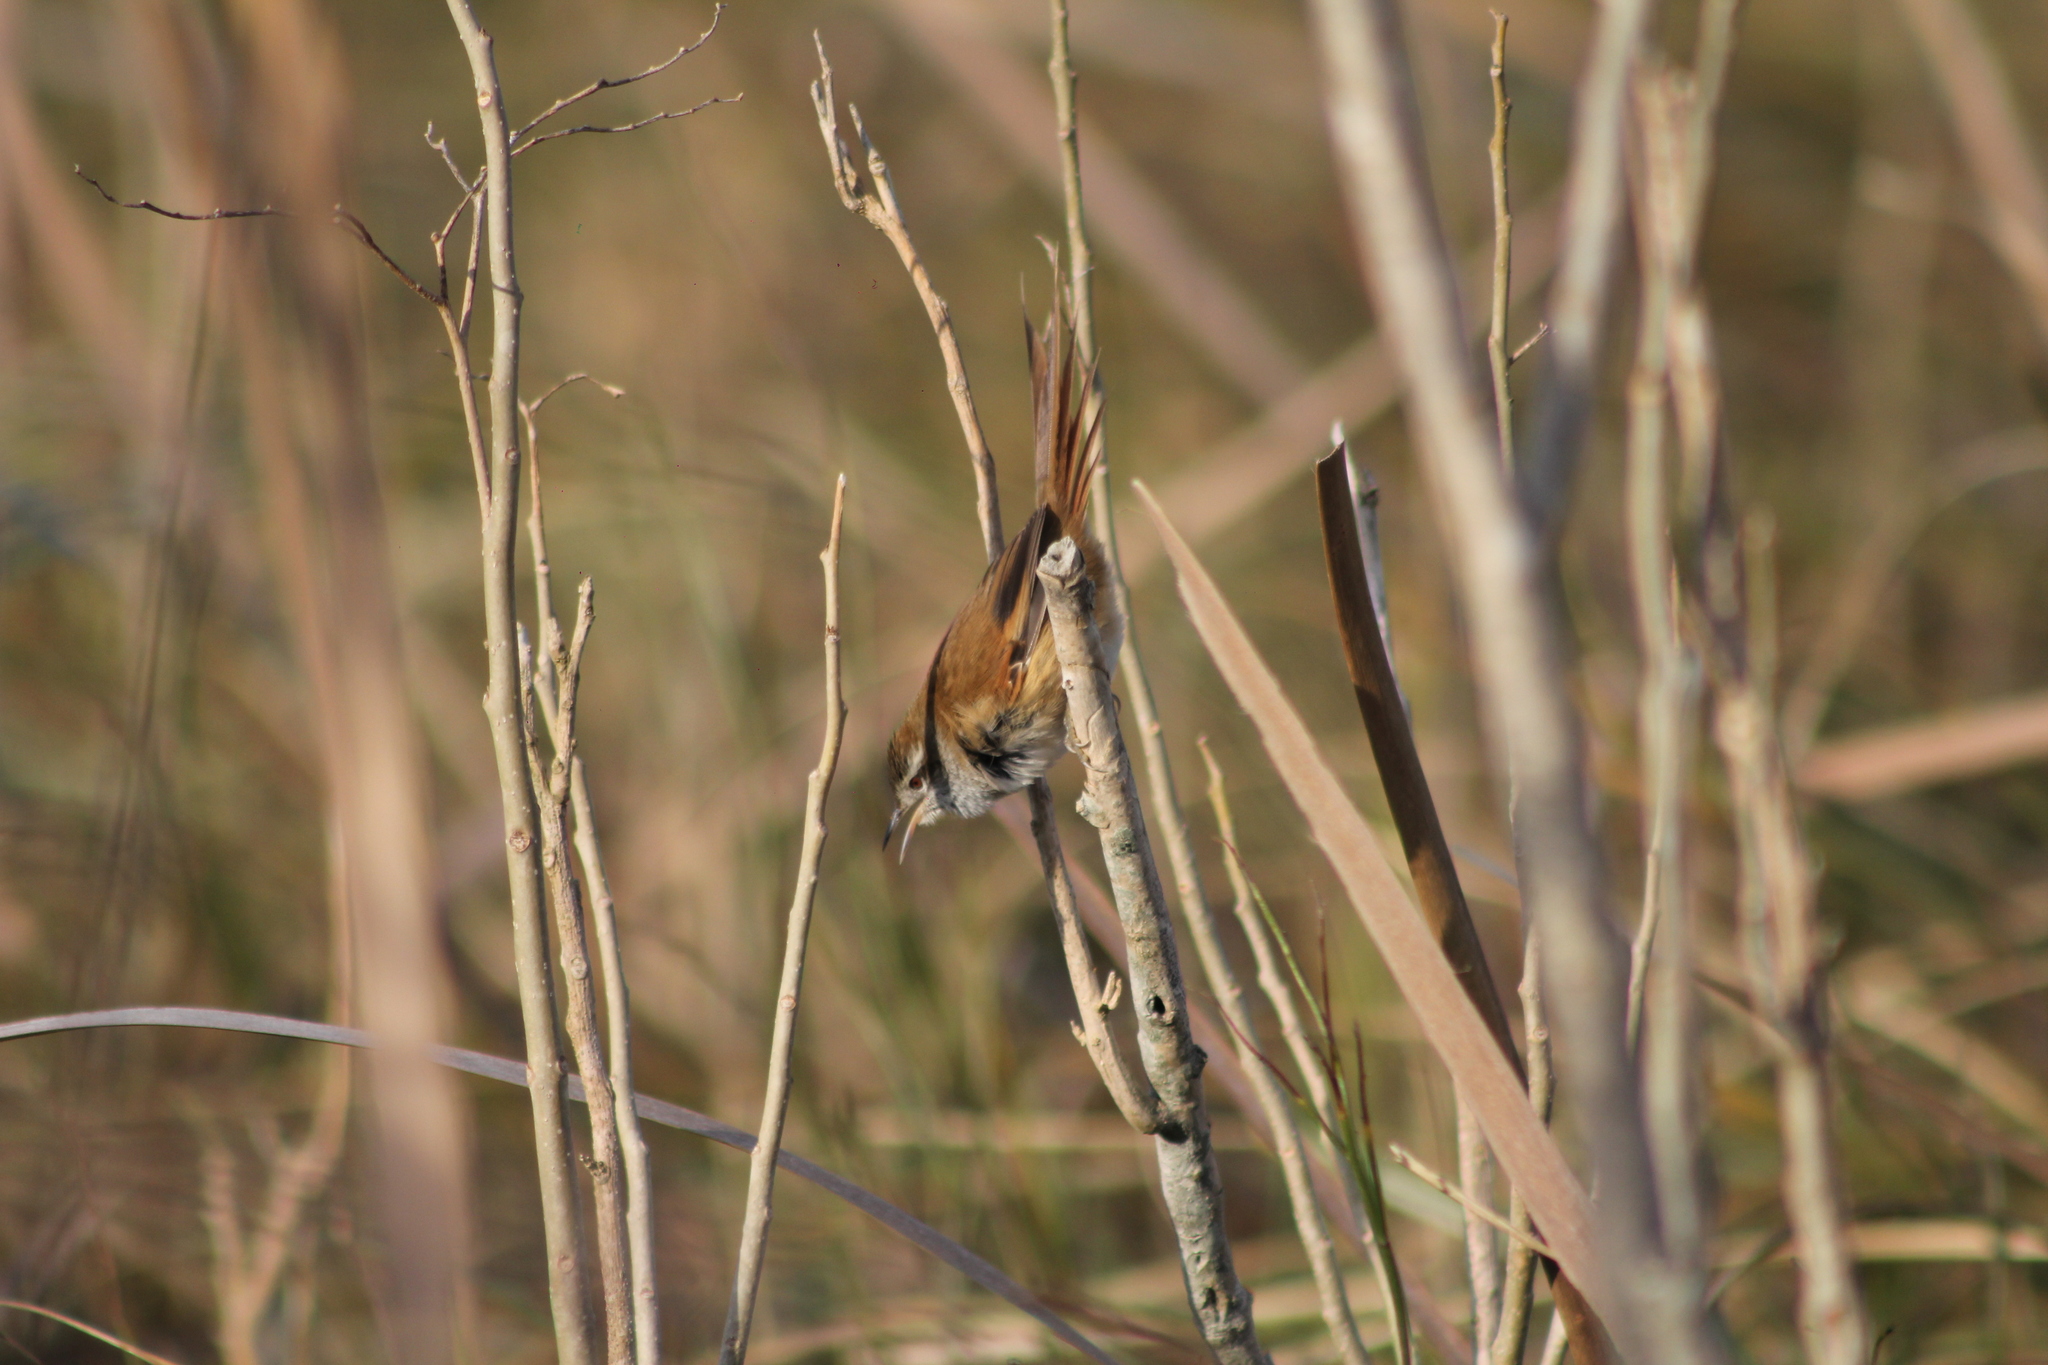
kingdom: Animalia
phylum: Chordata
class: Aves
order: Passeriformes
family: Furnariidae
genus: Cranioleuca
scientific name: Cranioleuca sulphurifera
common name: Sulphur-bearded spinetail
